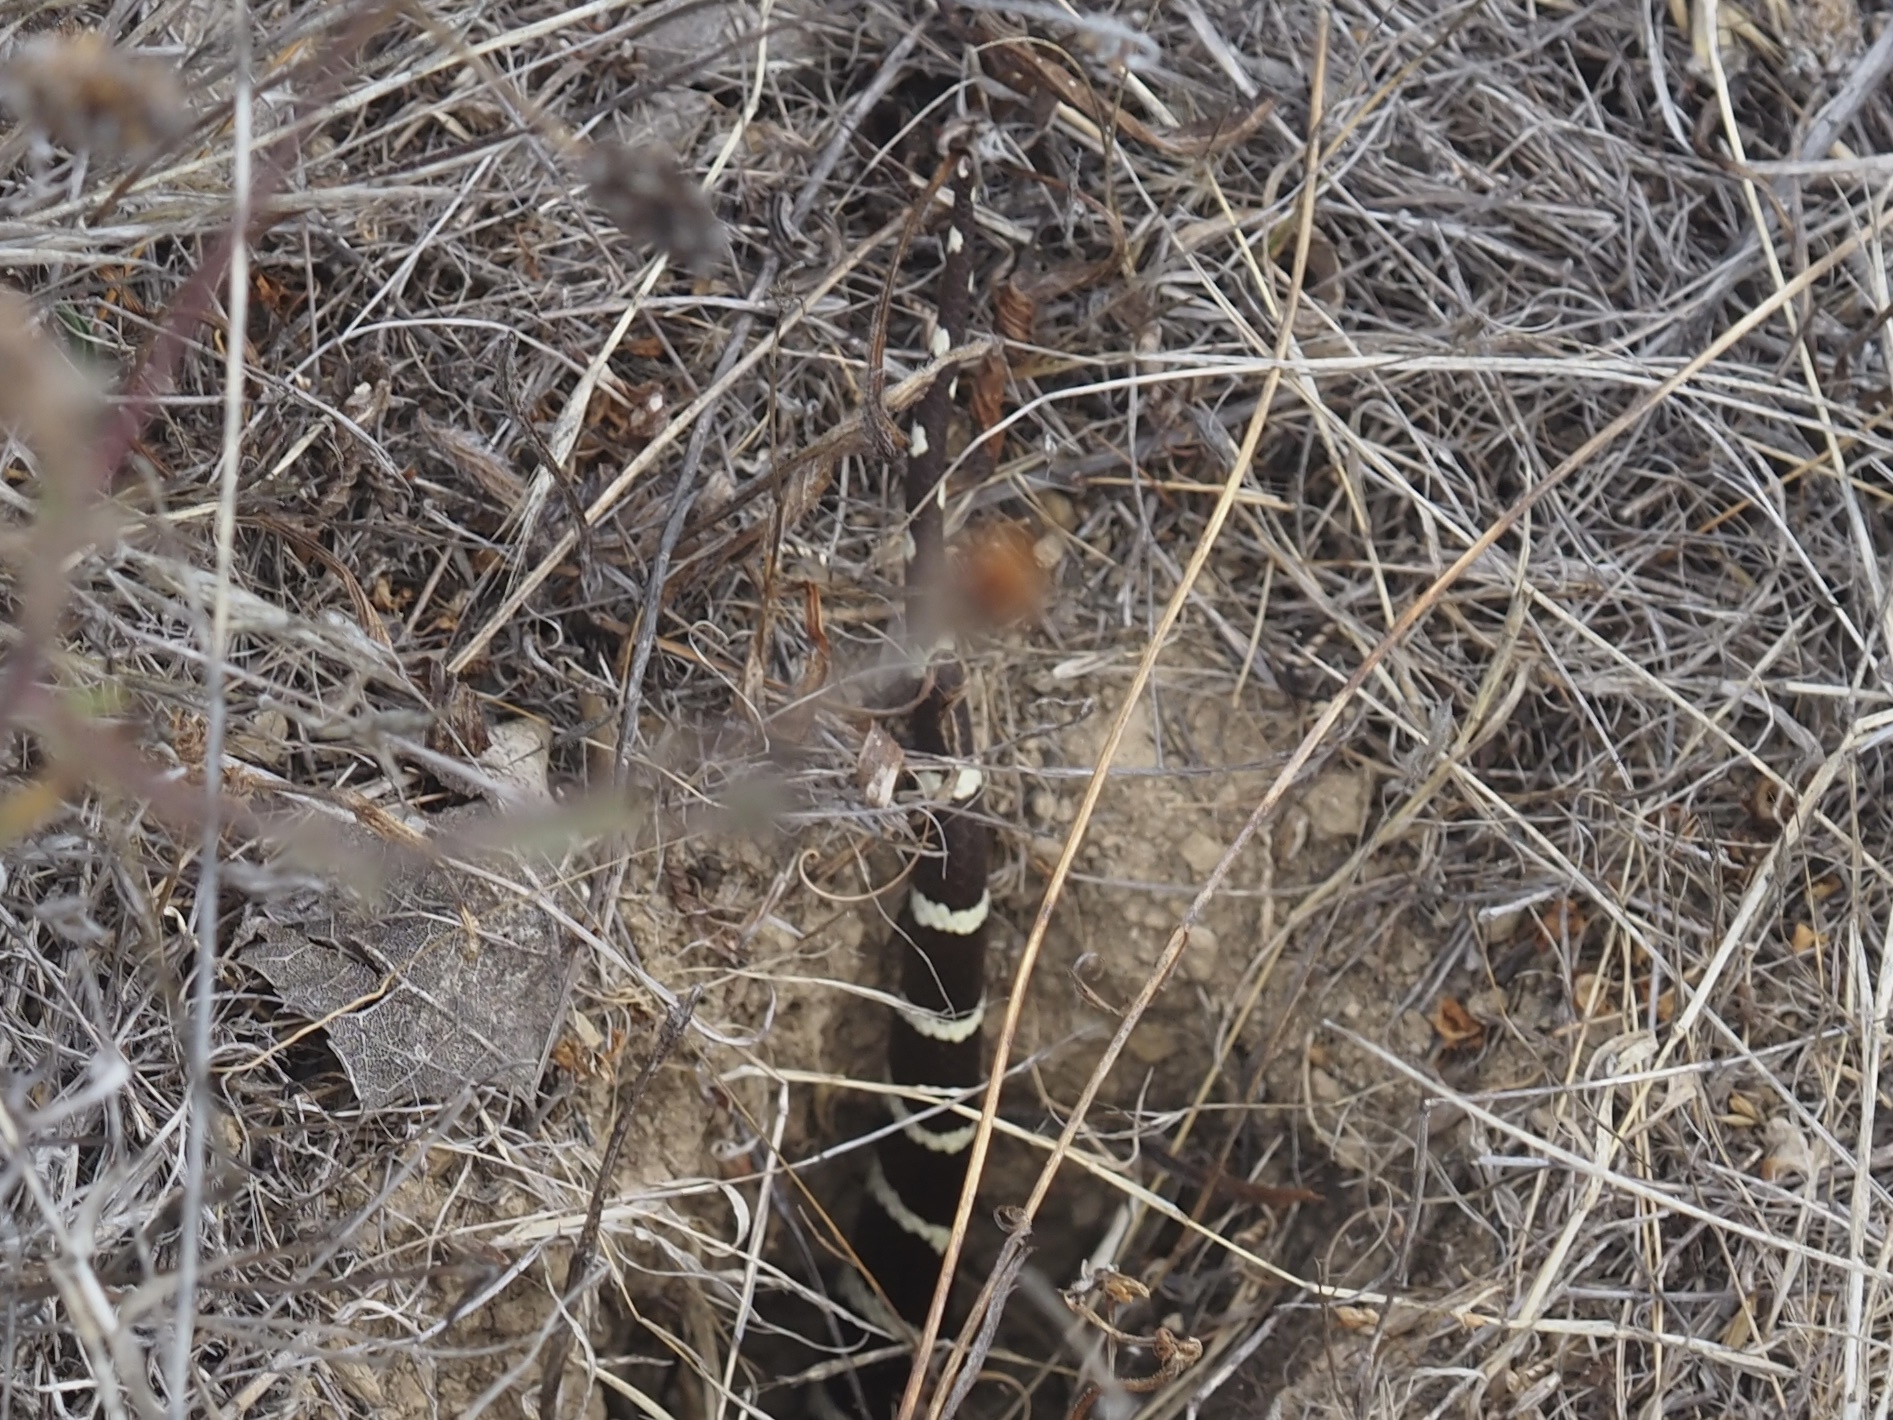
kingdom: Animalia
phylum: Chordata
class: Squamata
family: Colubridae
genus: Lampropeltis
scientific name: Lampropeltis californiae
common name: California kingsnake
